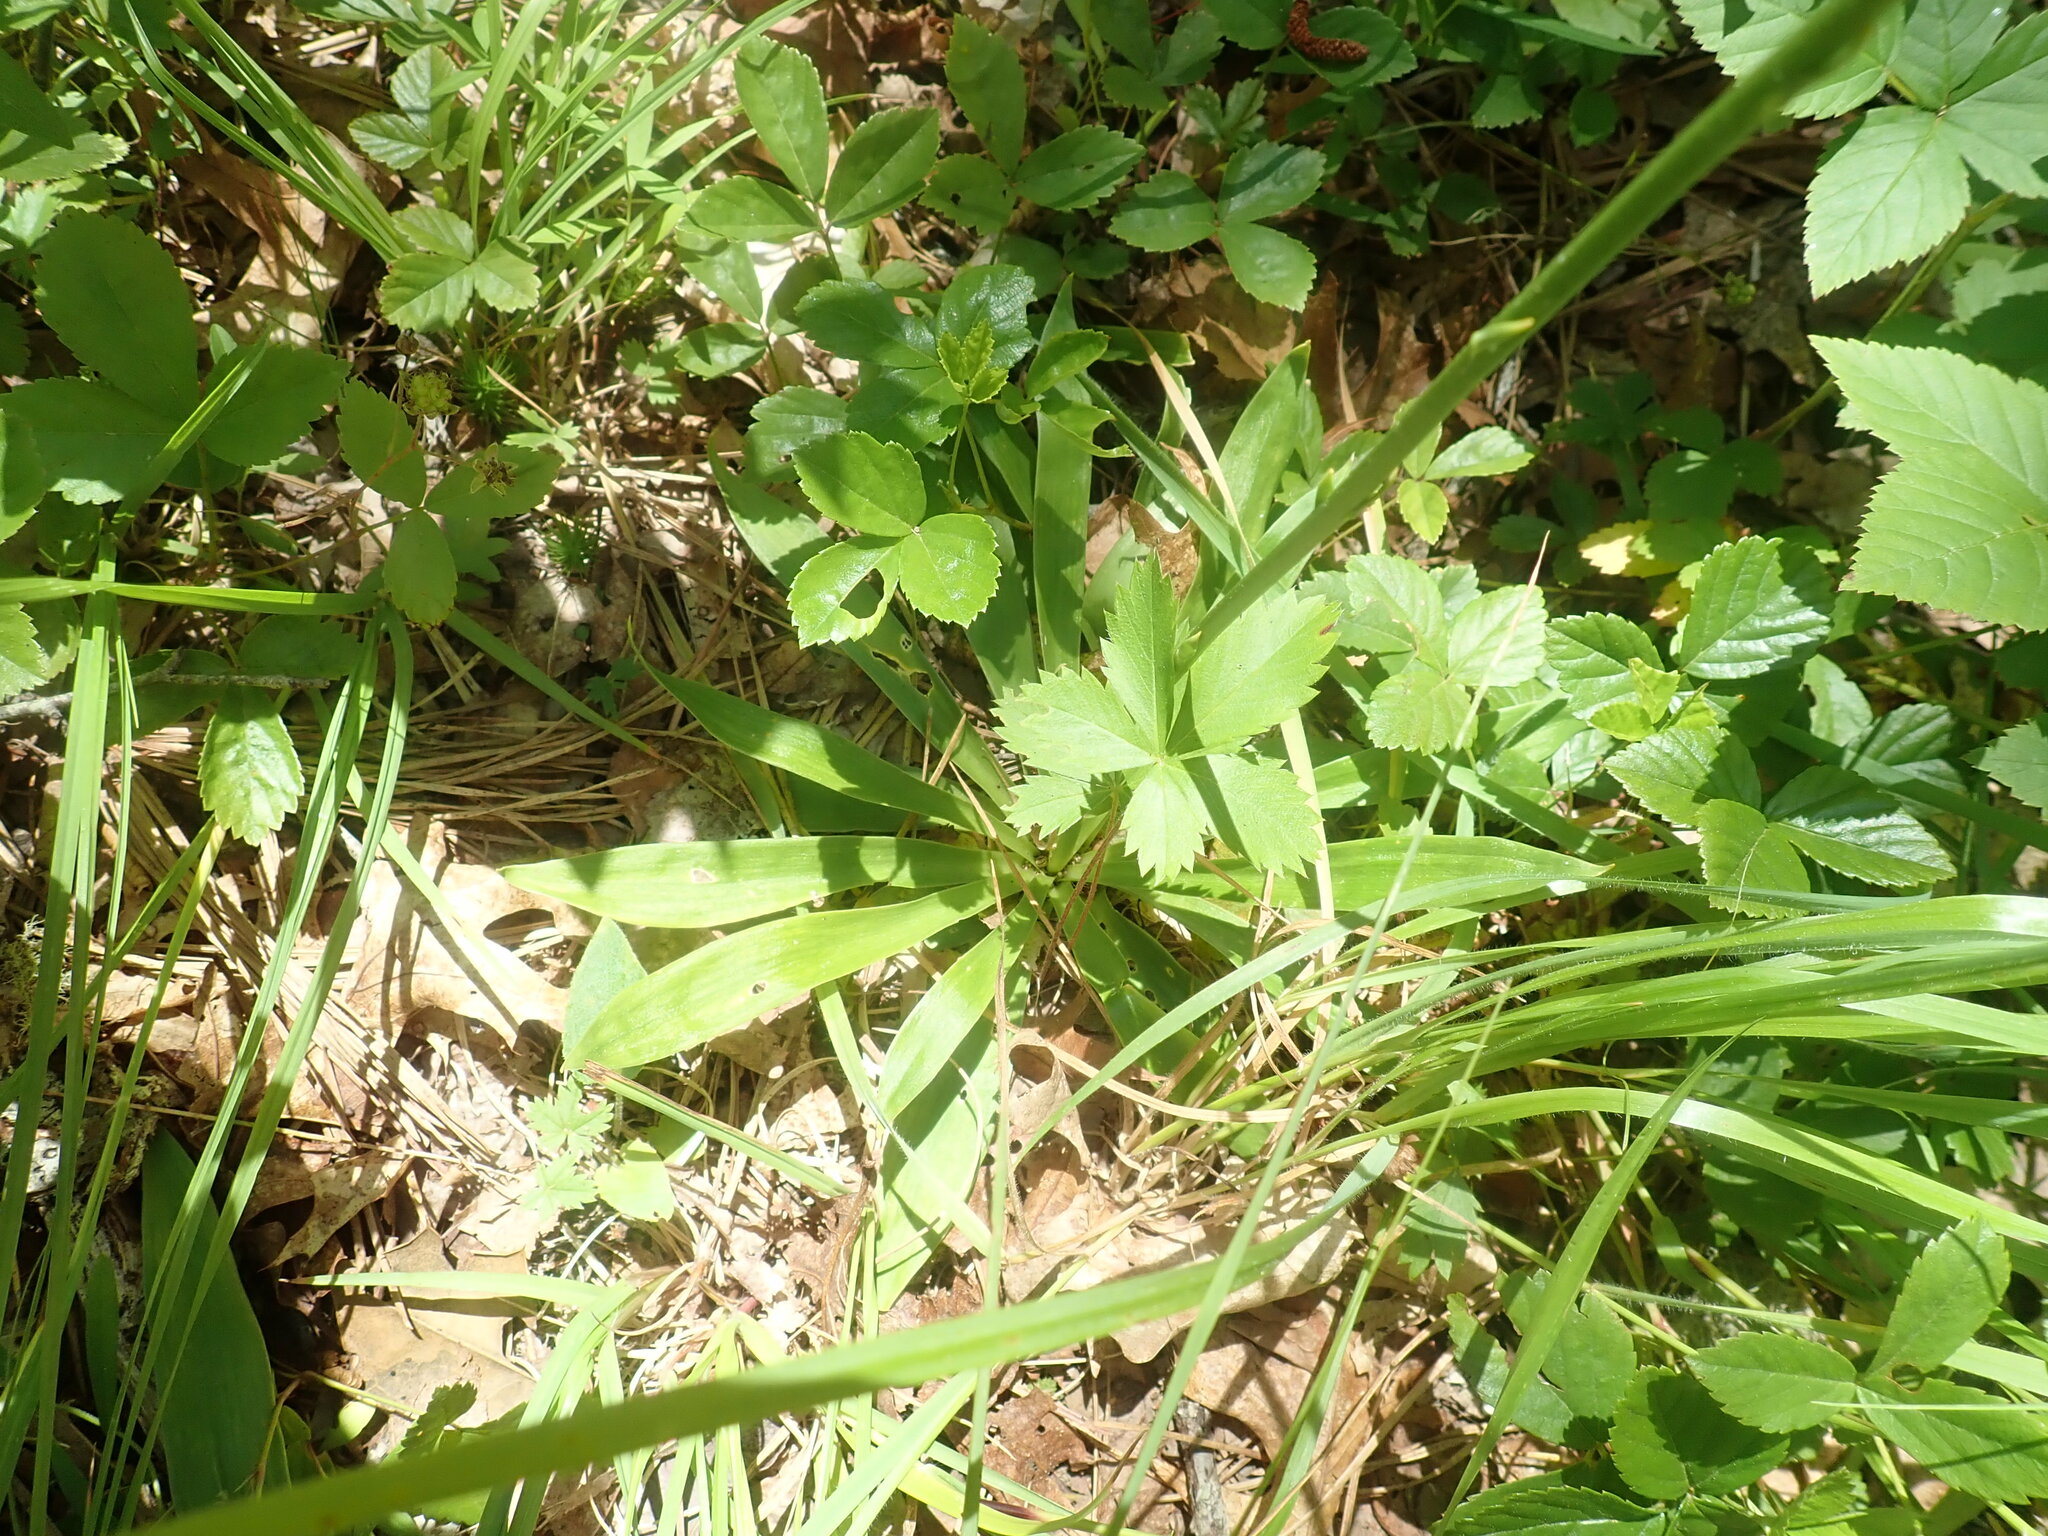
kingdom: Plantae
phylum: Tracheophyta
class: Liliopsida
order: Dioscoreales
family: Nartheciaceae
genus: Aletris
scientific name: Aletris farinosa
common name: Colicroot
